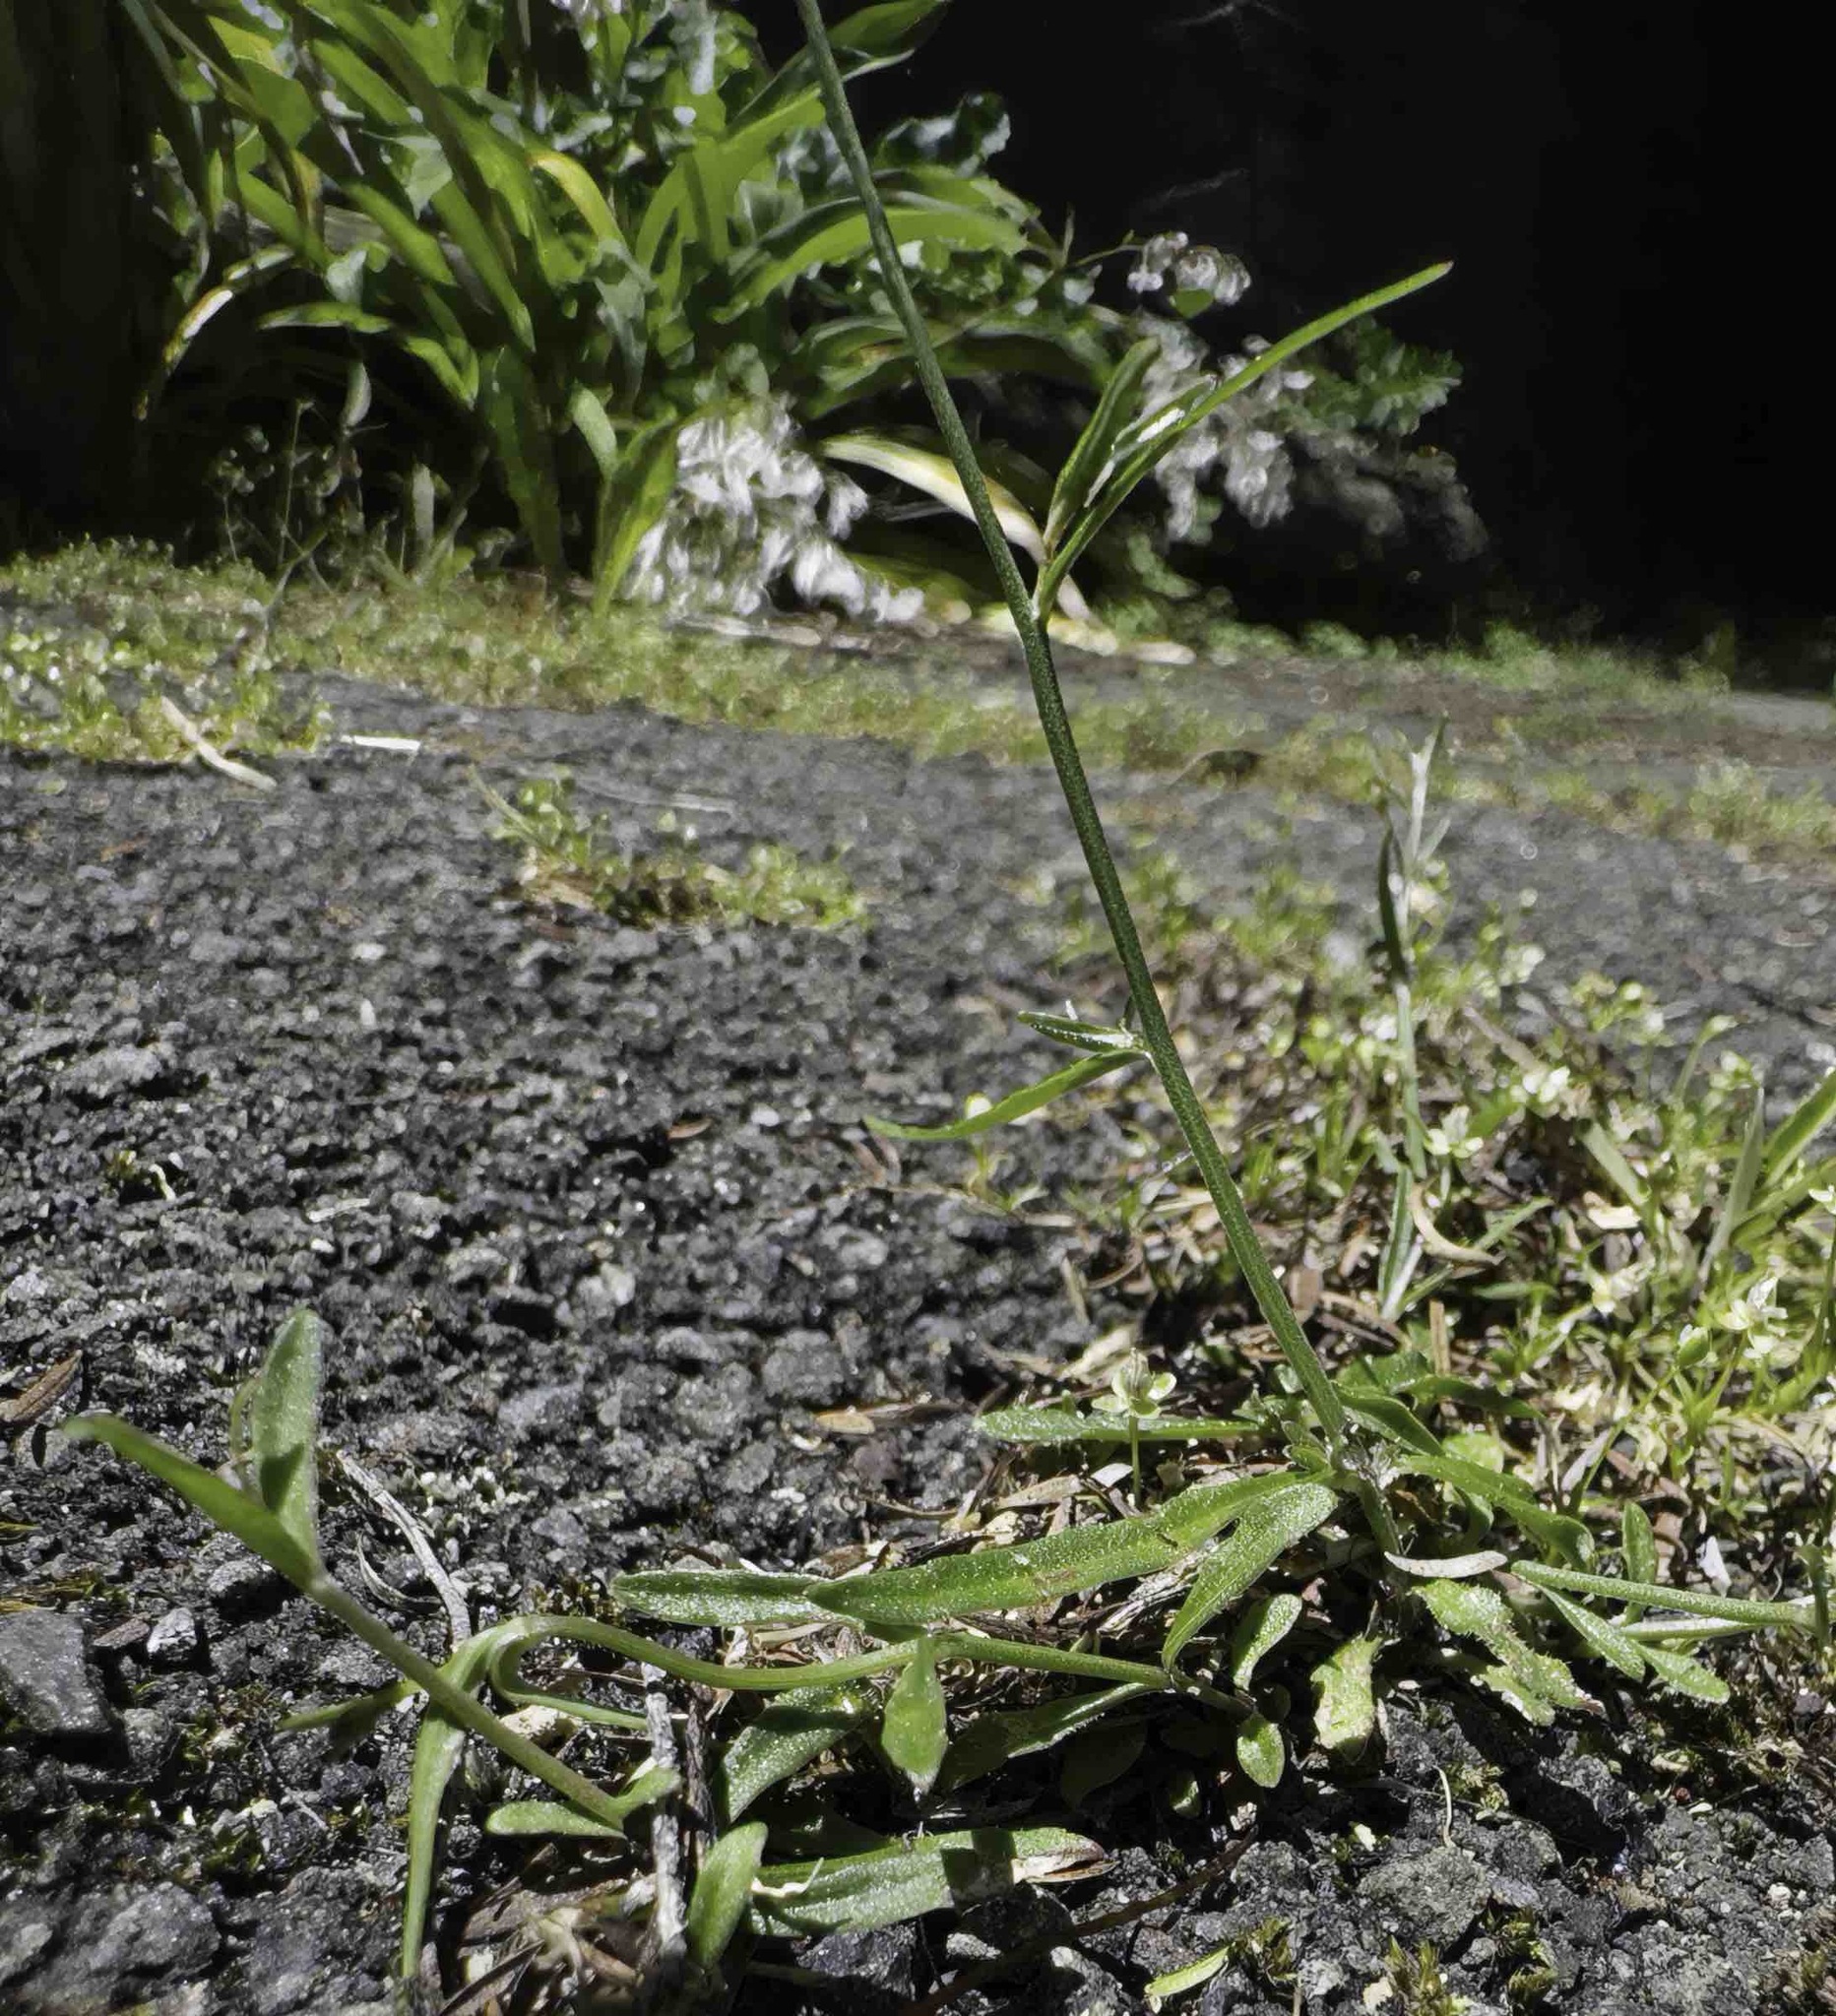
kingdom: Plantae
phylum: Tracheophyta
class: Magnoliopsida
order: Asterales
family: Campanulaceae
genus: Wahlenbergia
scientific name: Wahlenbergia violacea
